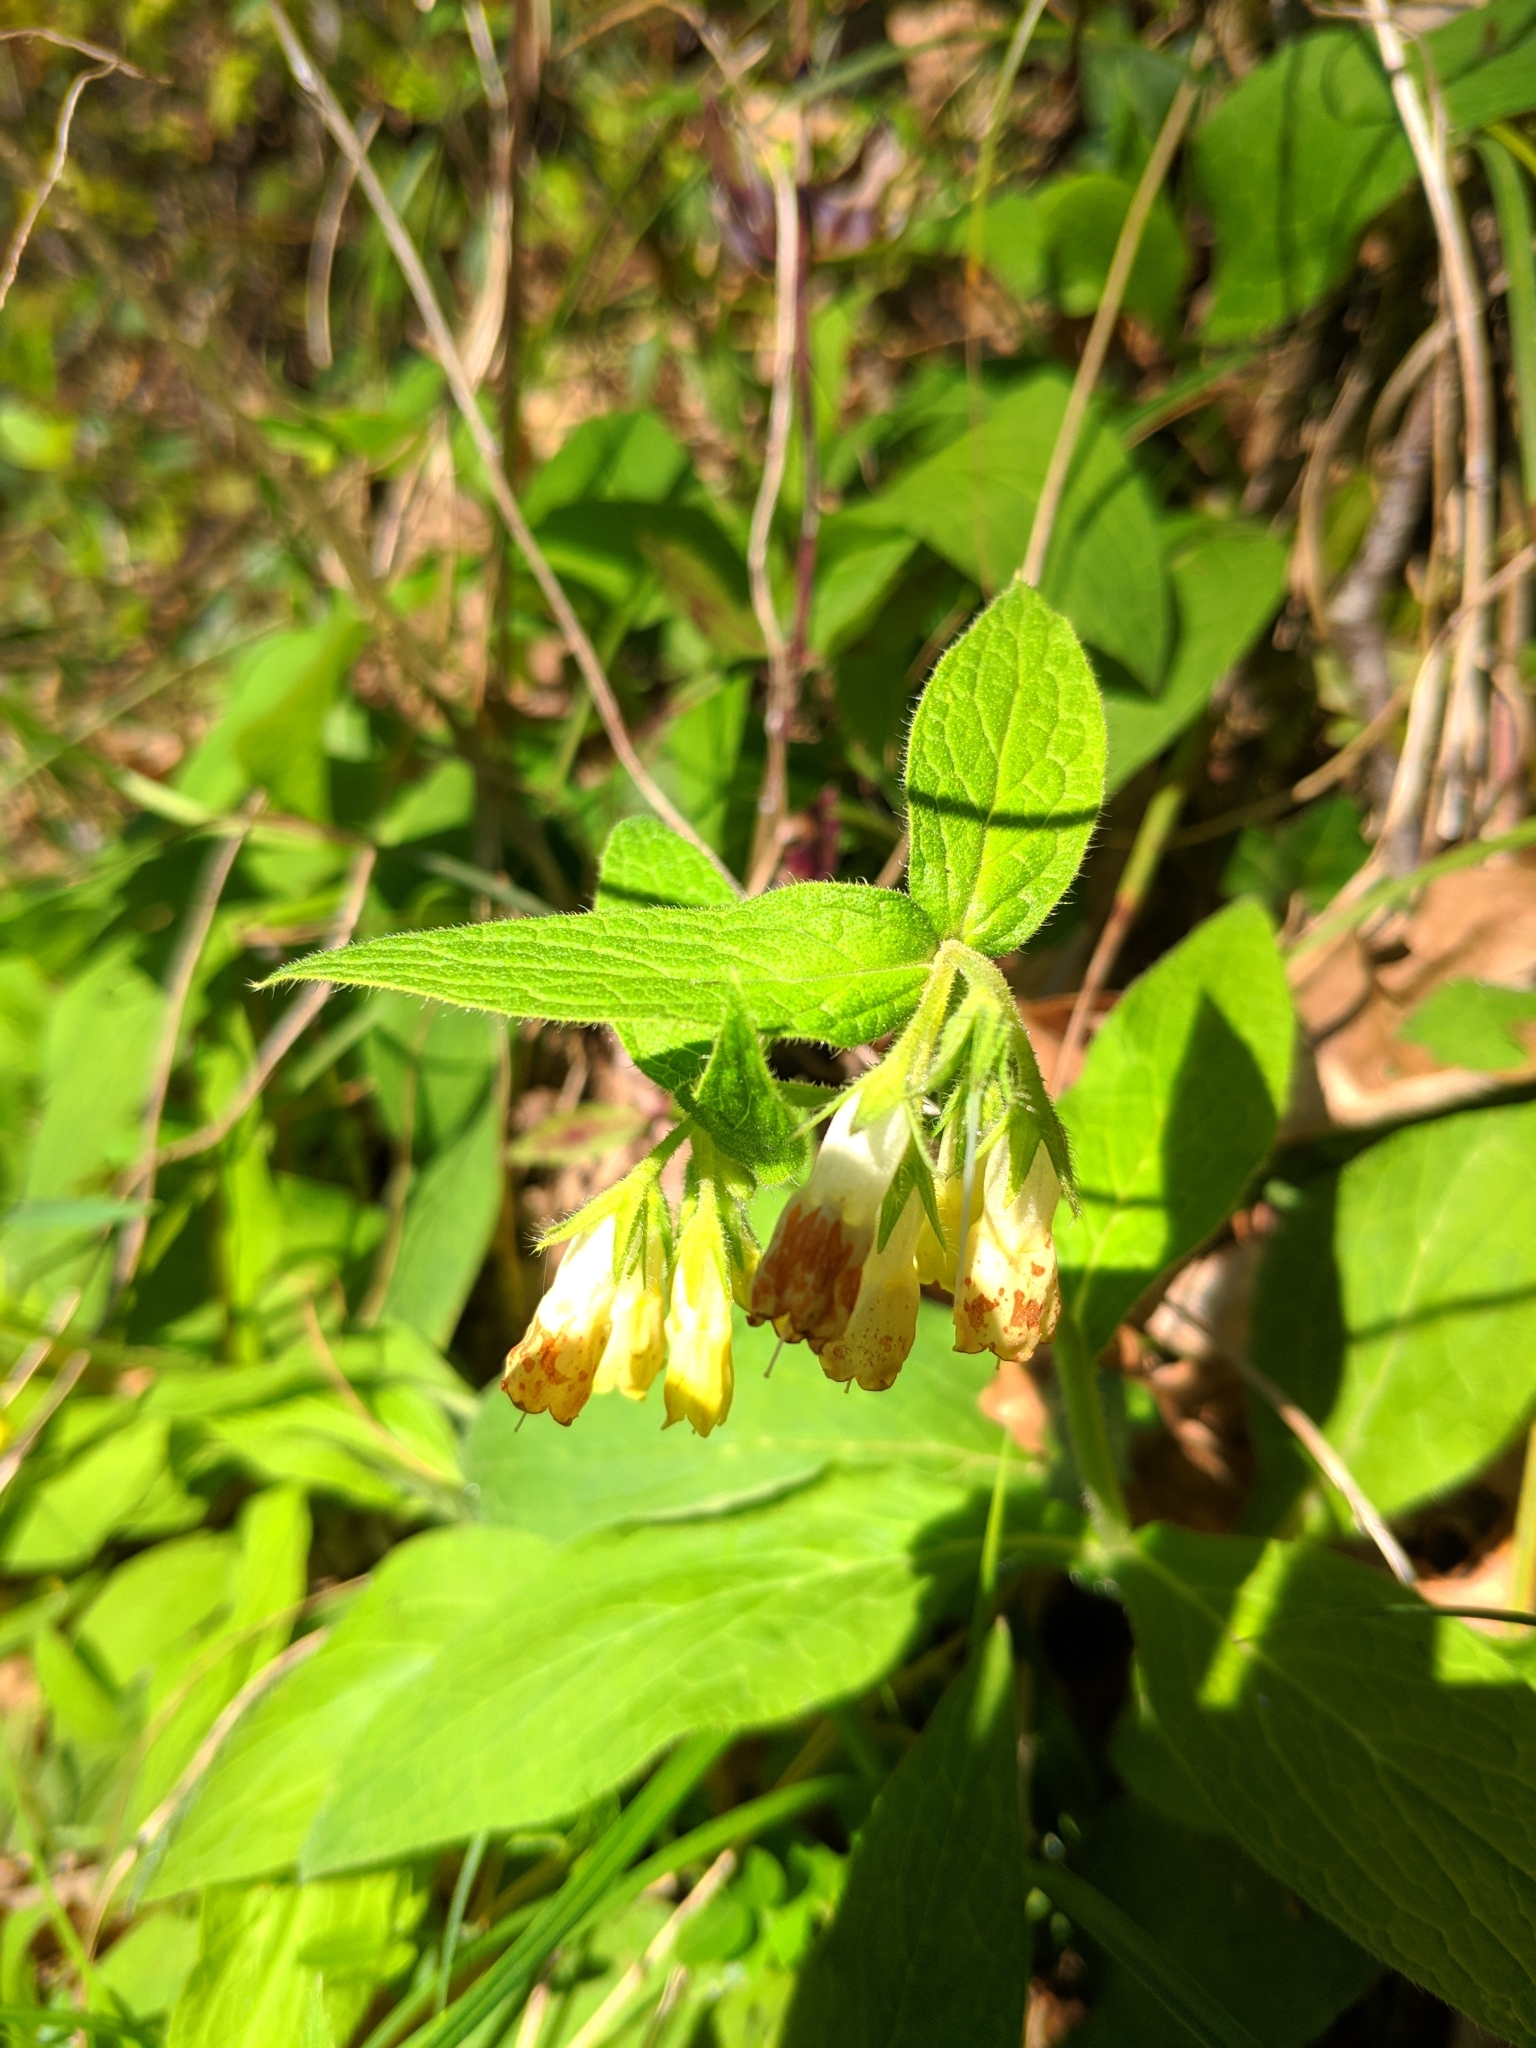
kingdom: Plantae
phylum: Tracheophyta
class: Magnoliopsida
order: Boraginales
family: Boraginaceae
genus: Symphytum
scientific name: Symphytum tuberosum
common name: Tuberous comfrey
